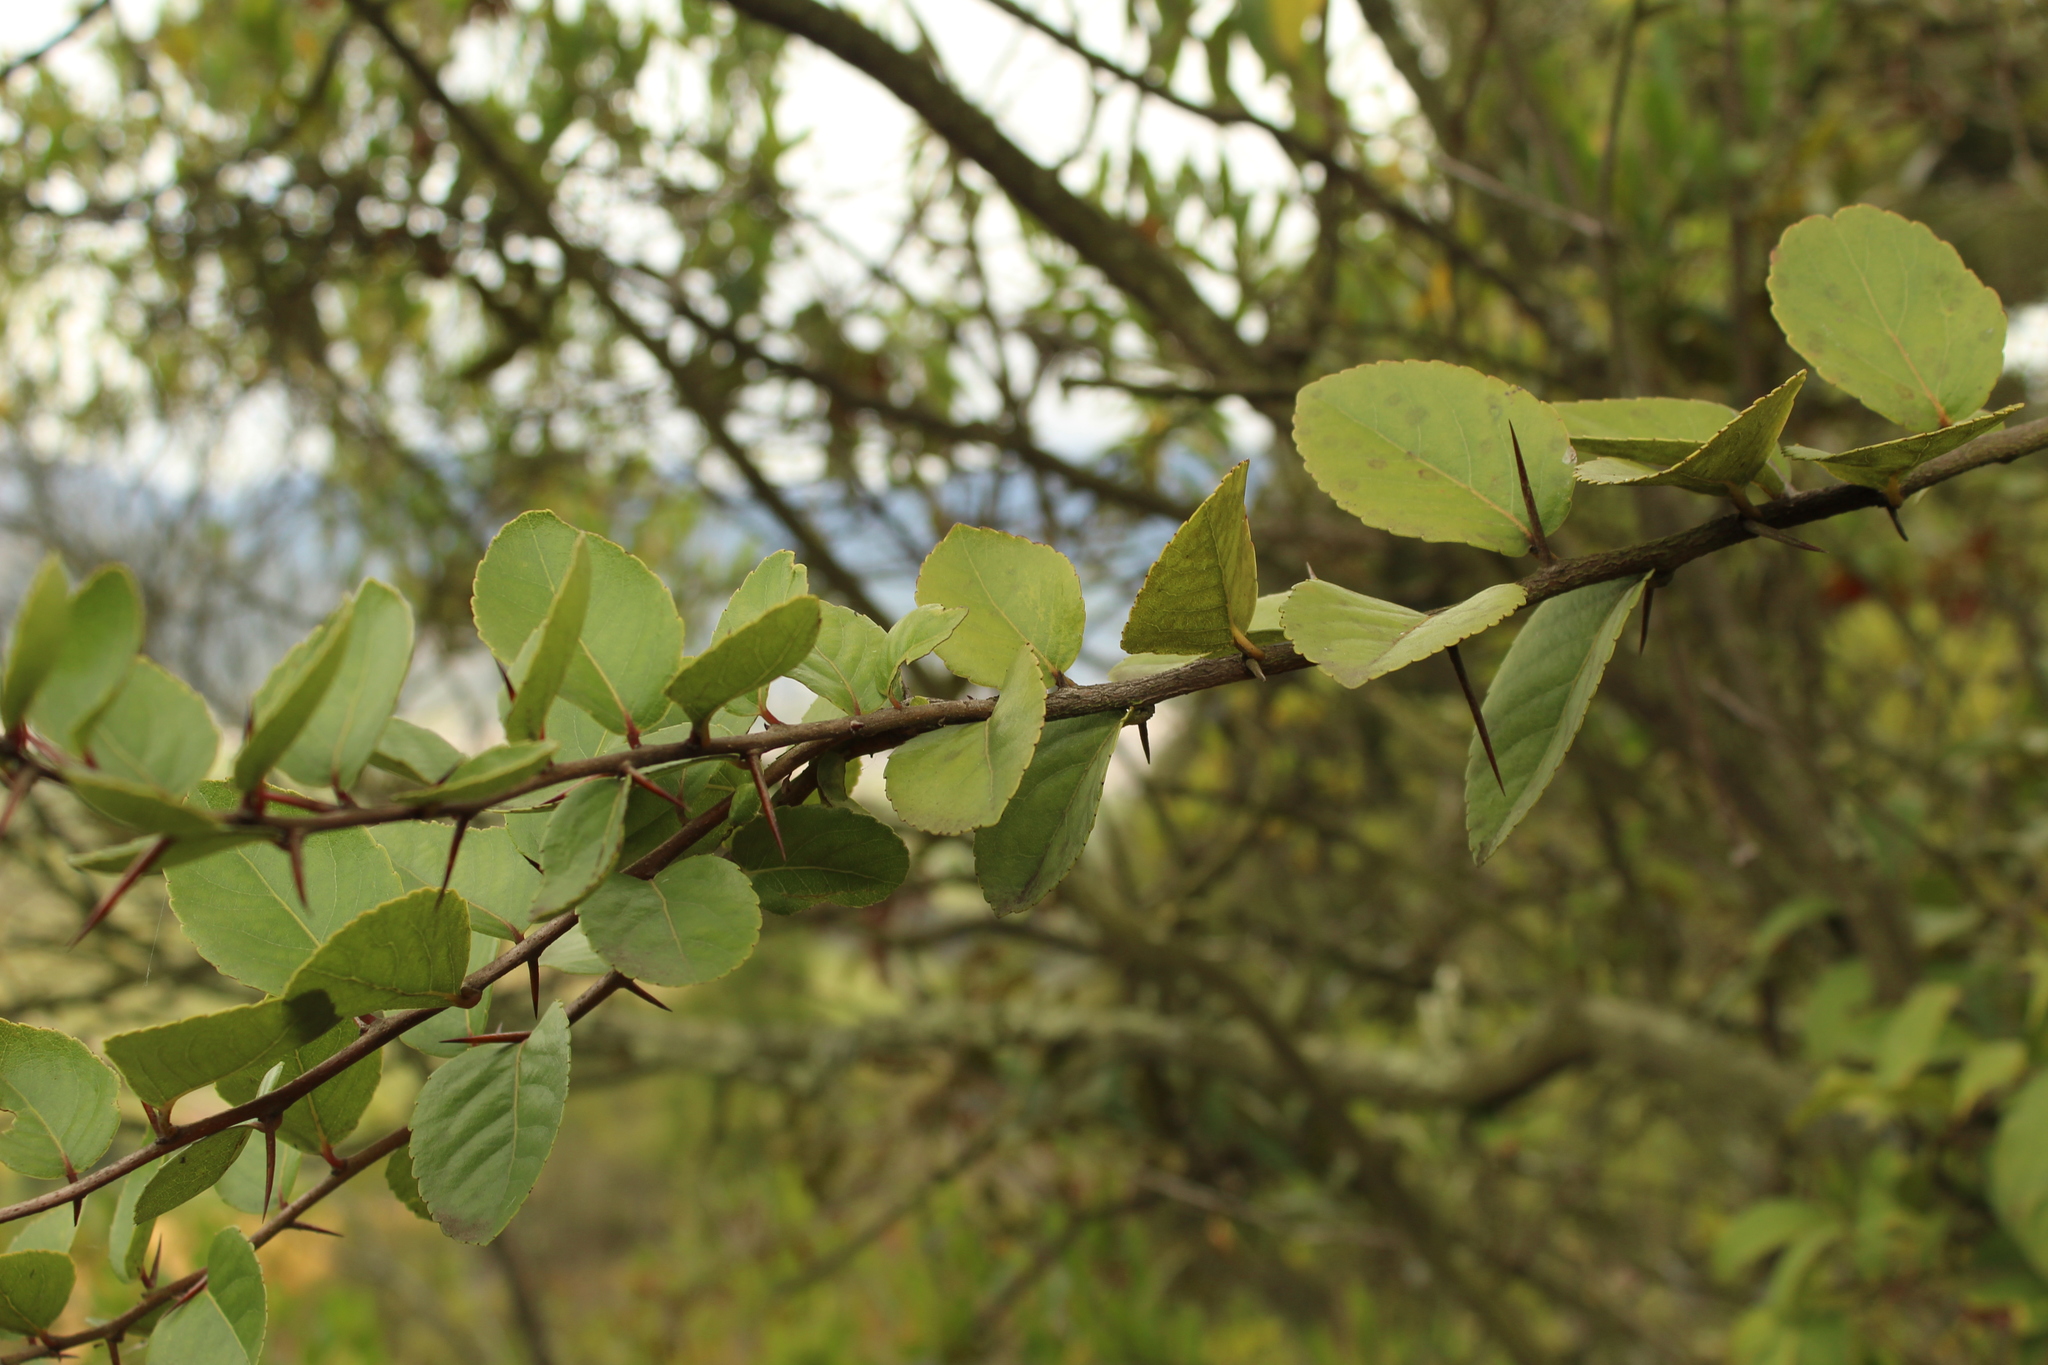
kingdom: Plantae
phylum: Tracheophyta
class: Magnoliopsida
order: Malpighiales
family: Salicaceae
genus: Xylosma
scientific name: Xylosma spiculifera
